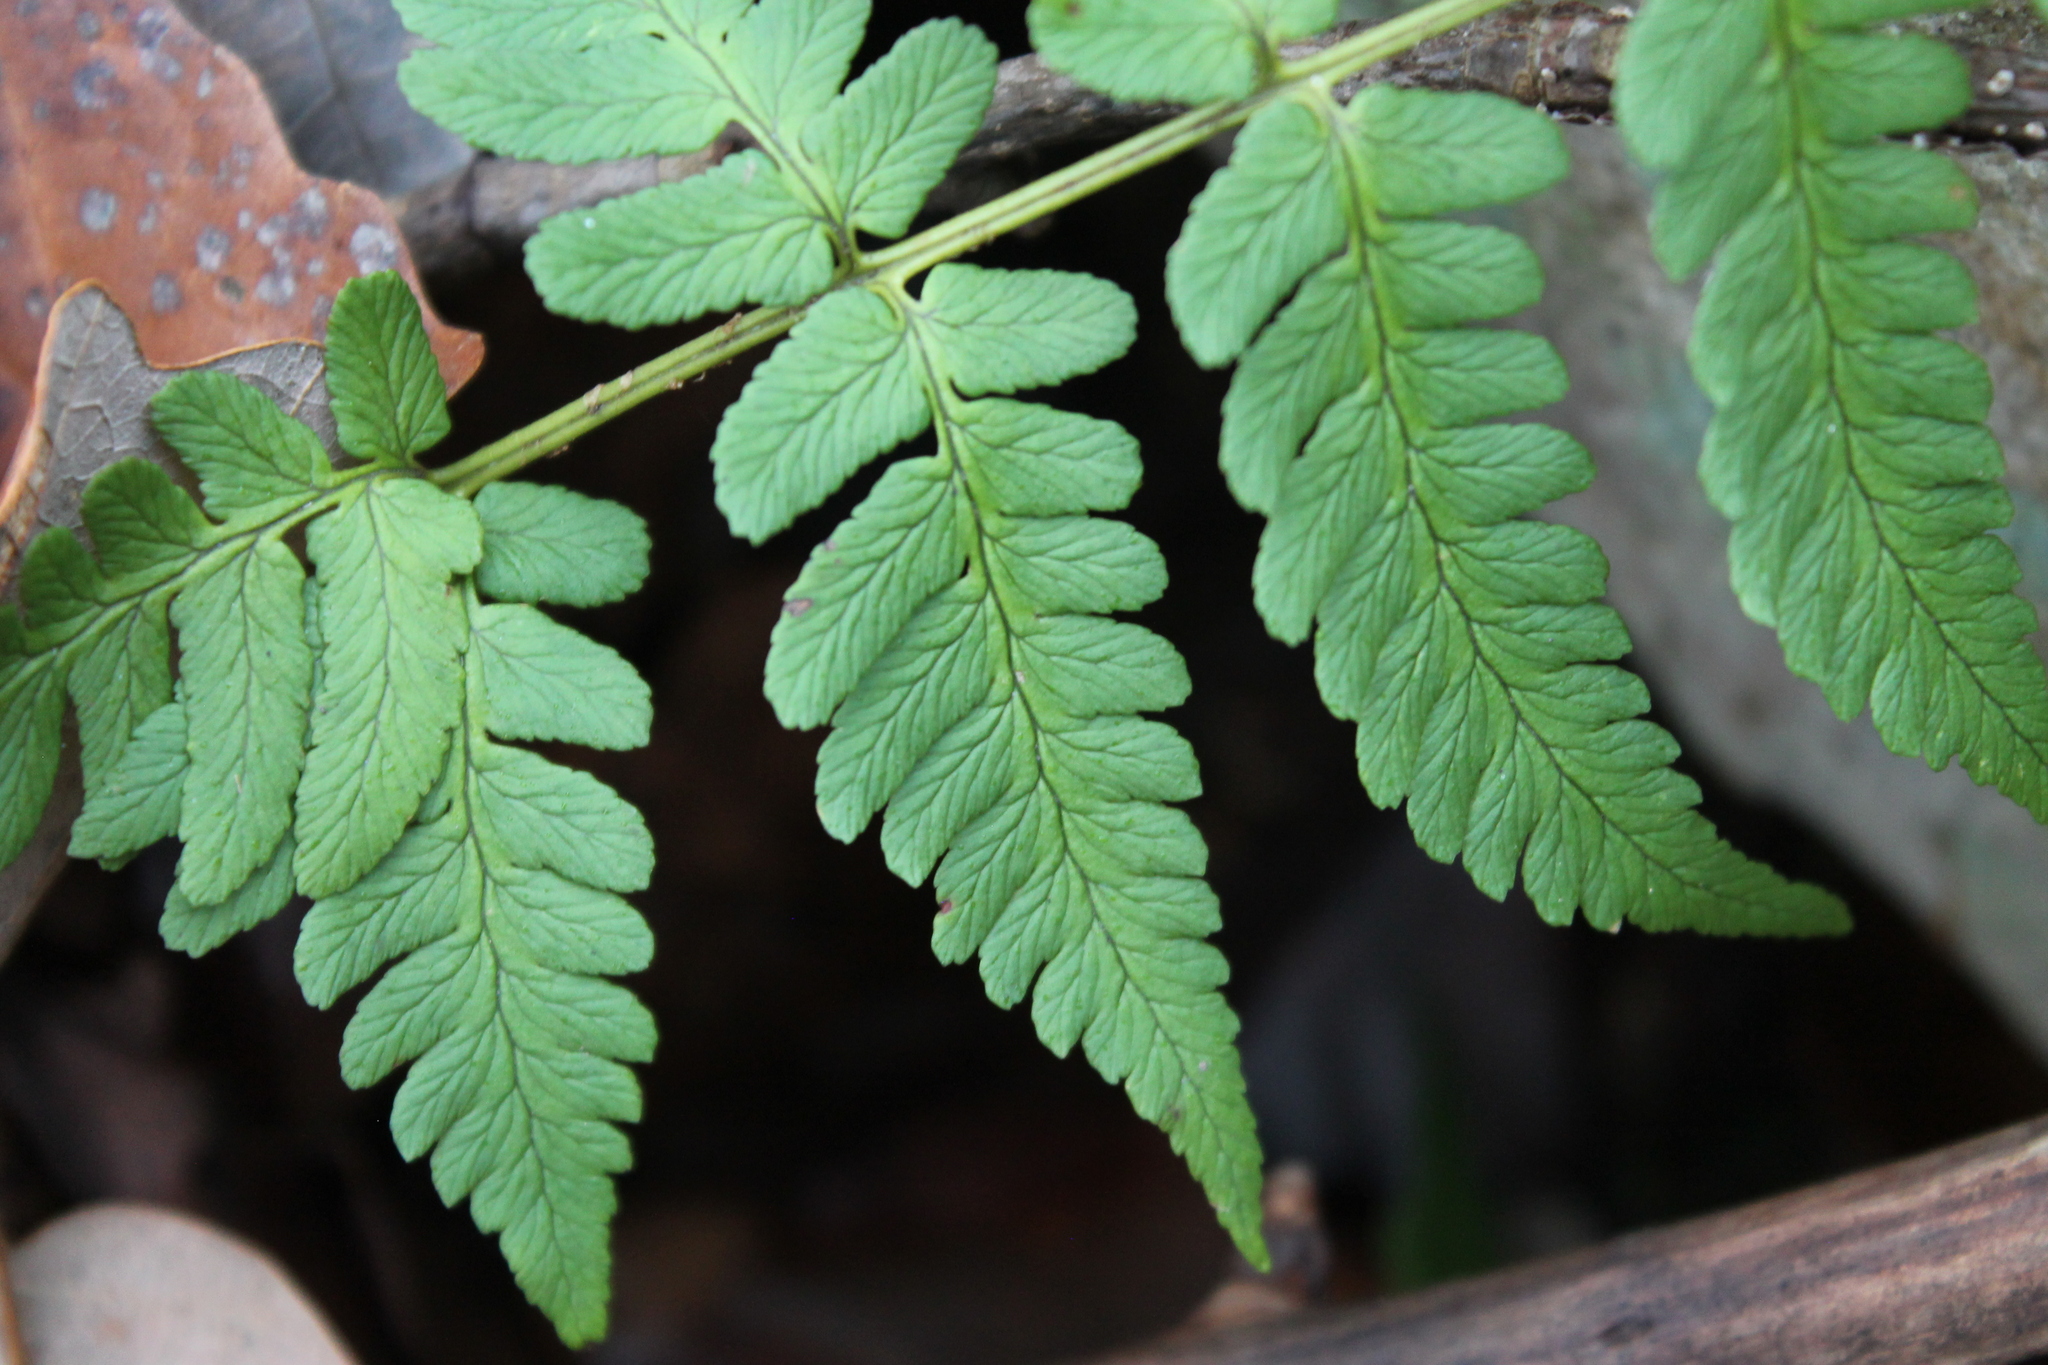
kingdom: Plantae
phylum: Tracheophyta
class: Polypodiopsida
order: Polypodiales
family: Dryopteridaceae
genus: Dryopteris
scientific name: Dryopteris marginalis
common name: Marginal wood fern
